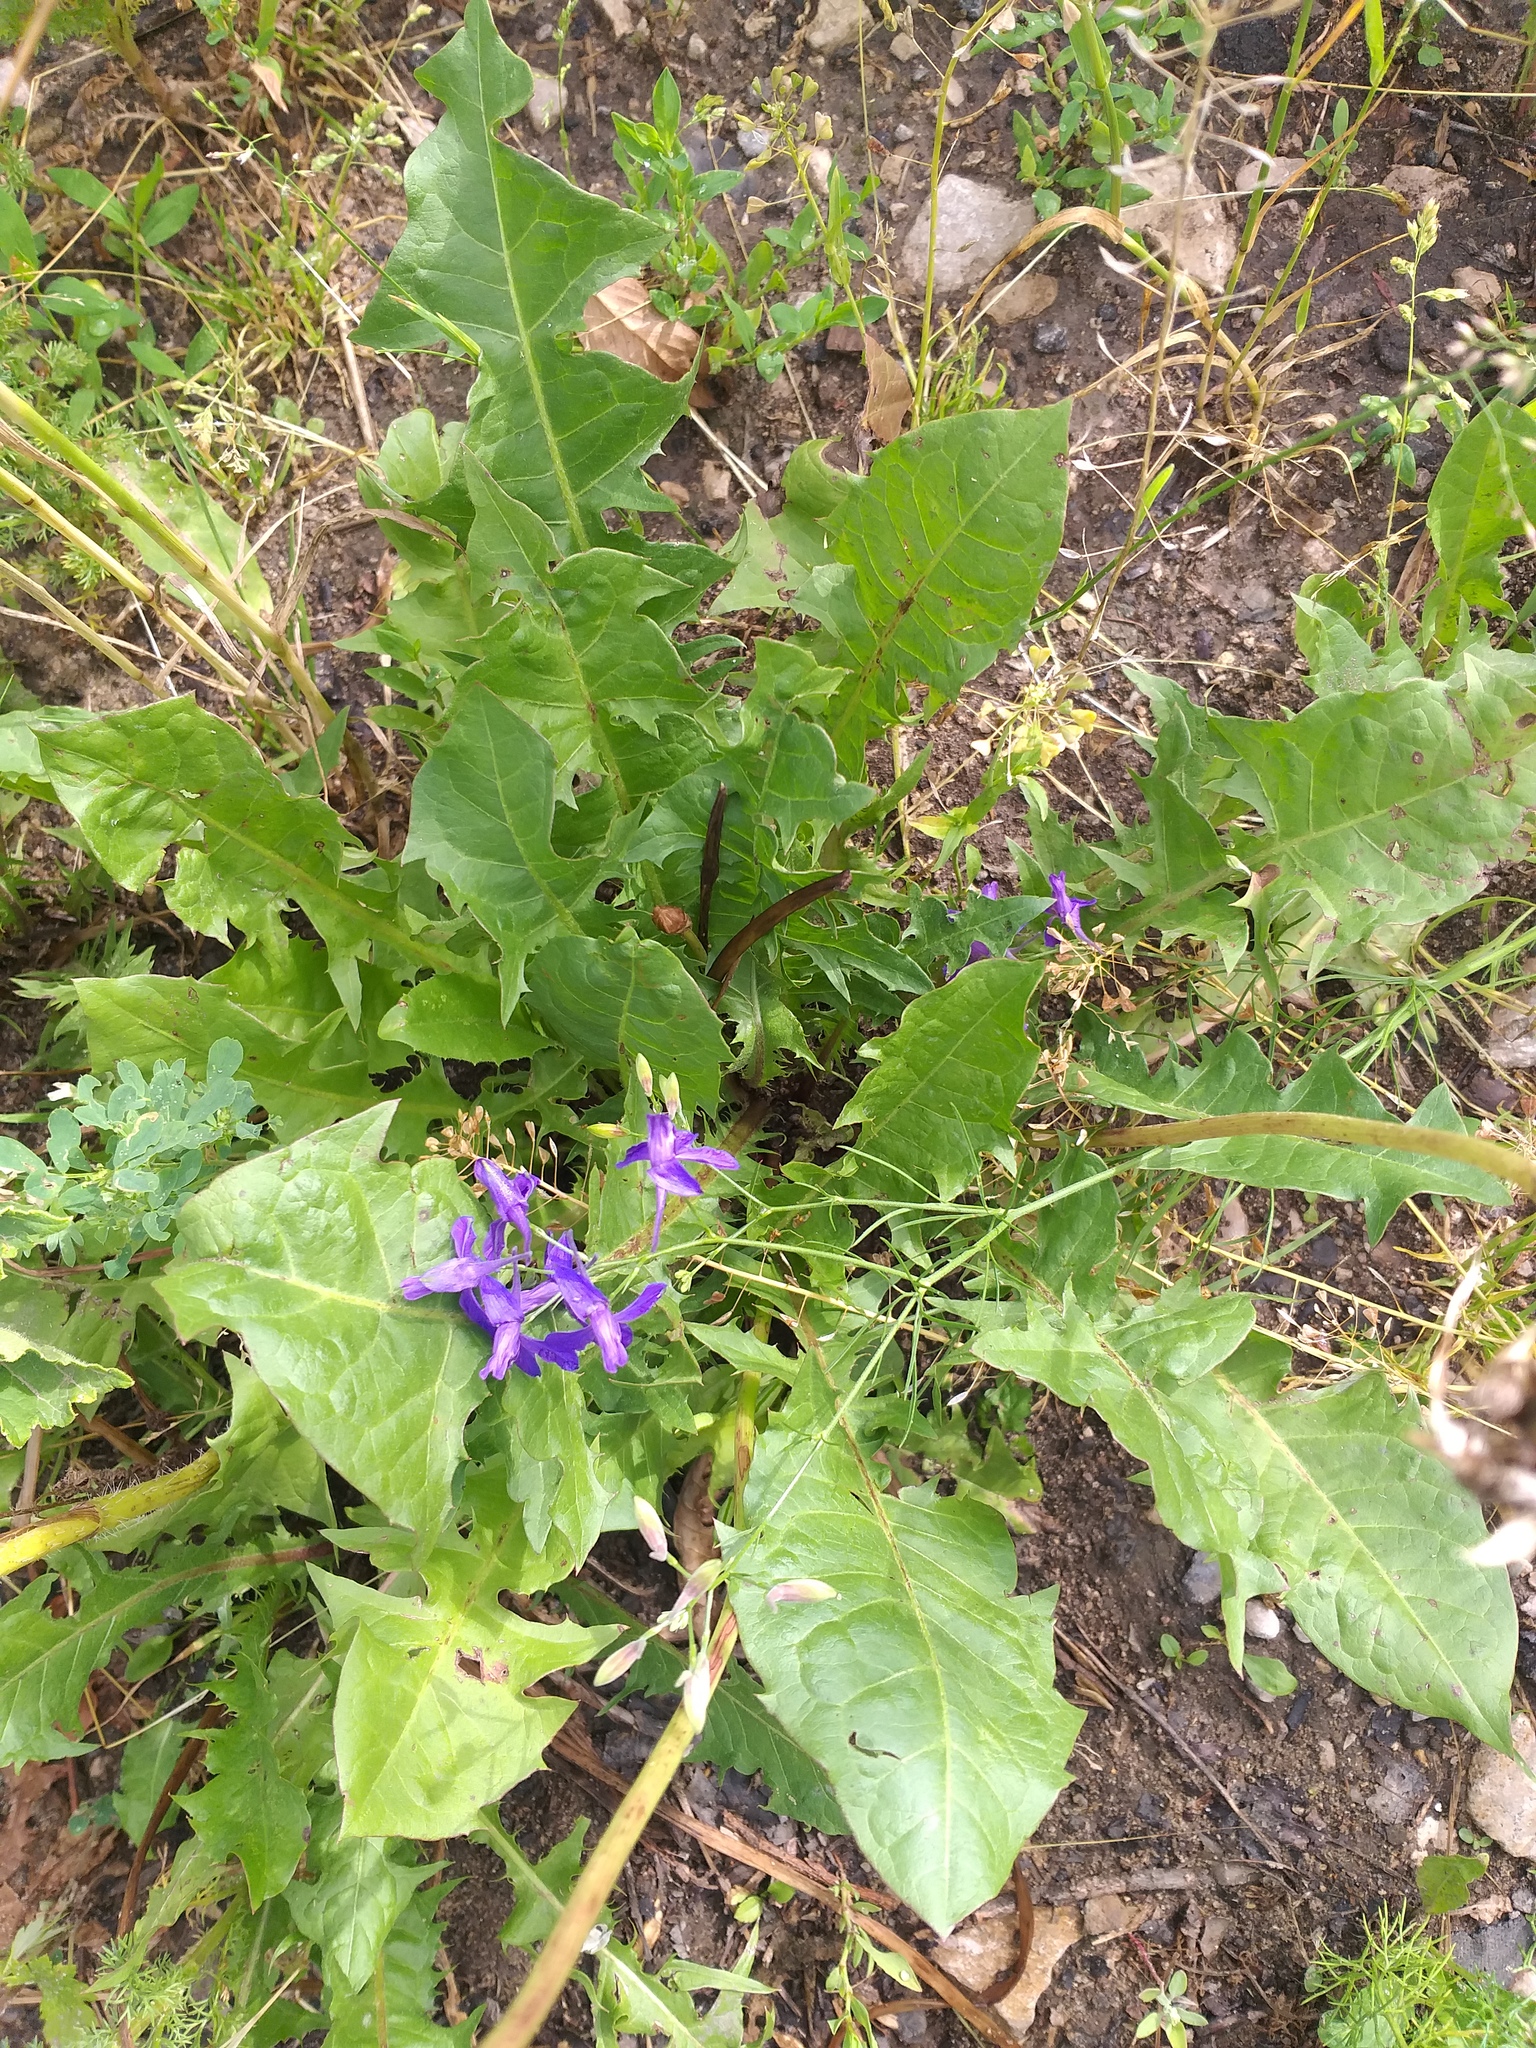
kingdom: Plantae
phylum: Tracheophyta
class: Magnoliopsida
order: Ranunculales
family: Ranunculaceae
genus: Delphinium
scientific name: Delphinium consolida
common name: Branching larkspur
